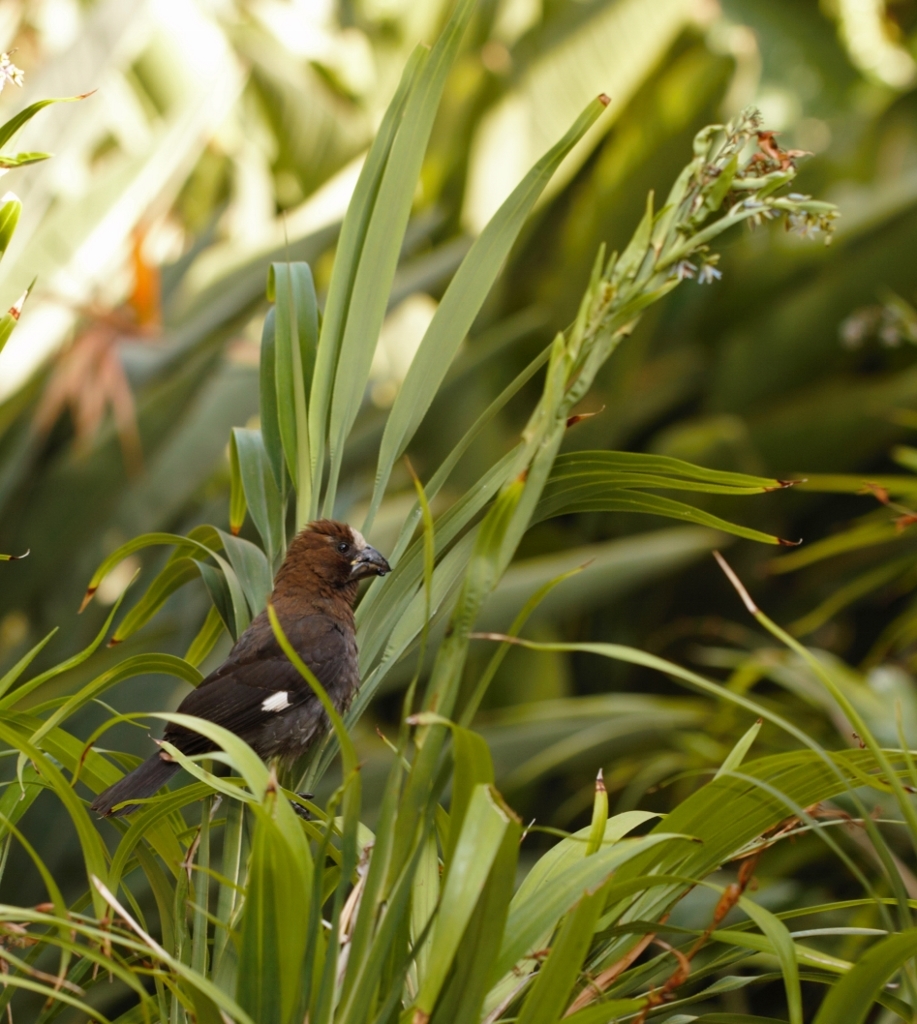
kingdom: Animalia
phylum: Chordata
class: Aves
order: Passeriformes
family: Ploceidae
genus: Amblyospiza
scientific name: Amblyospiza albifrons
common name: Thick-billed weaver
